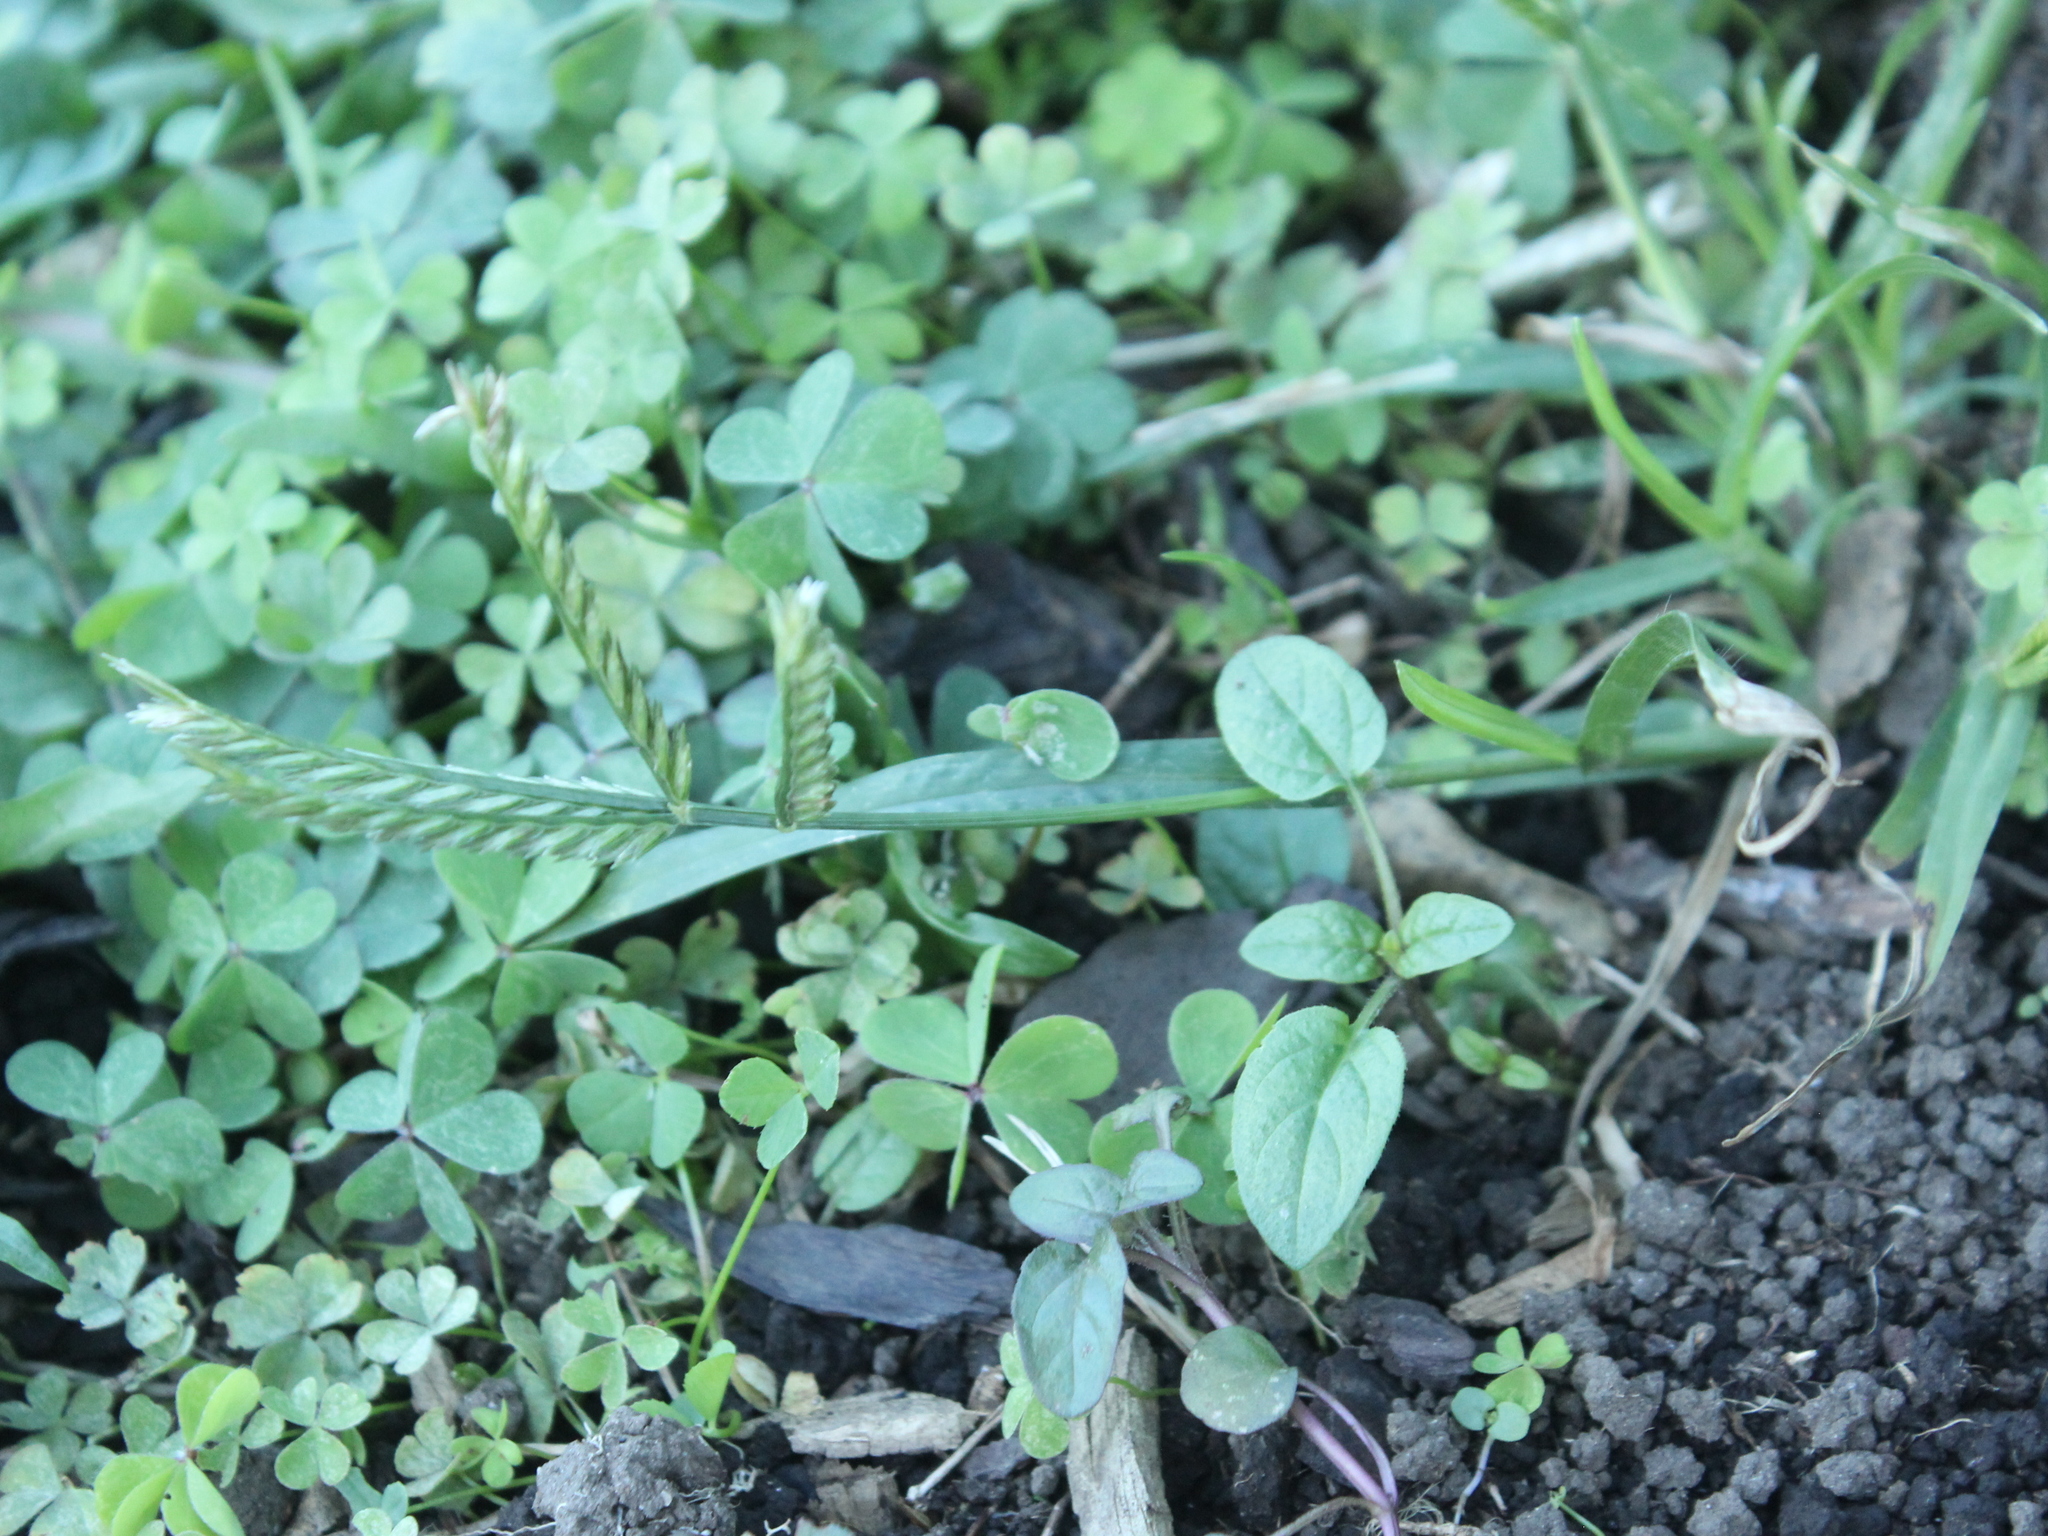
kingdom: Plantae
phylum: Tracheophyta
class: Liliopsida
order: Poales
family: Poaceae
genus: Eleusine
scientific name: Eleusine indica
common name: Yard-grass
